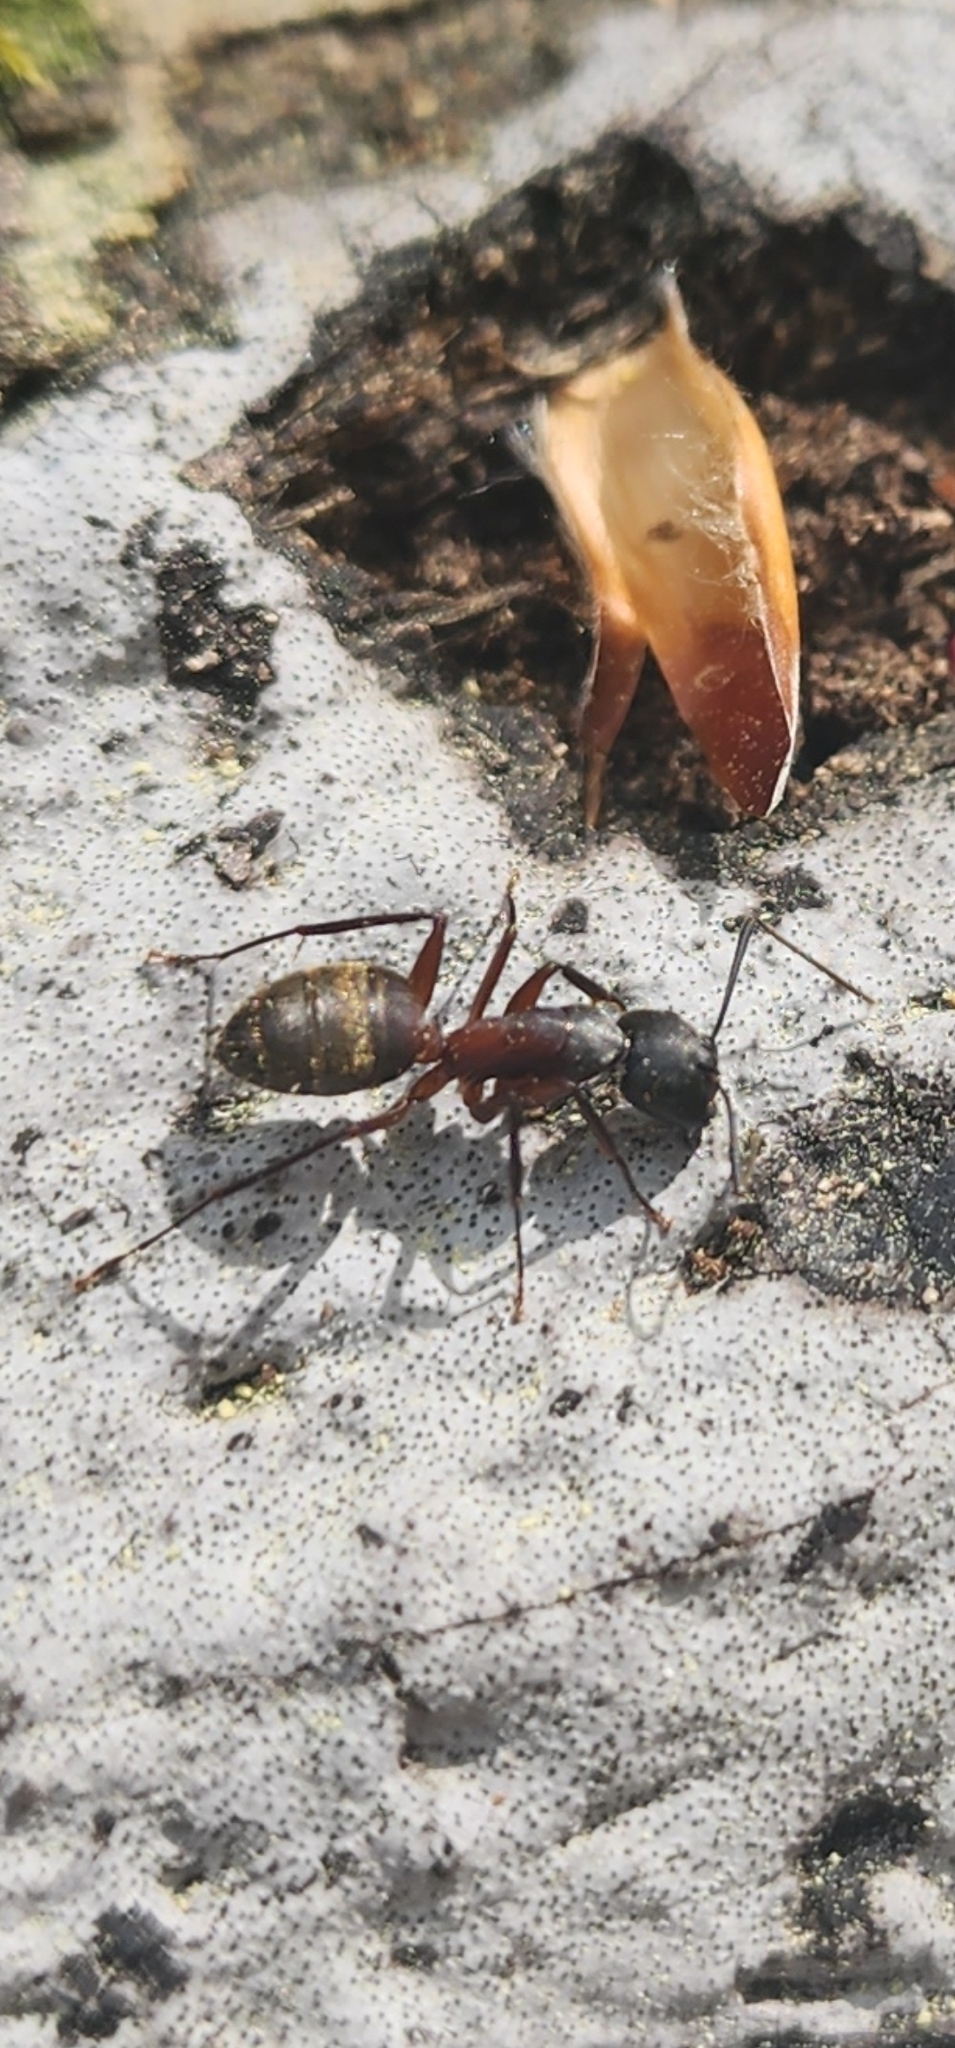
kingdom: Animalia
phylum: Arthropoda
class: Insecta
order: Hymenoptera
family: Formicidae
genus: Camponotus
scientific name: Camponotus chromaiodes
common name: Red carpenter ant
